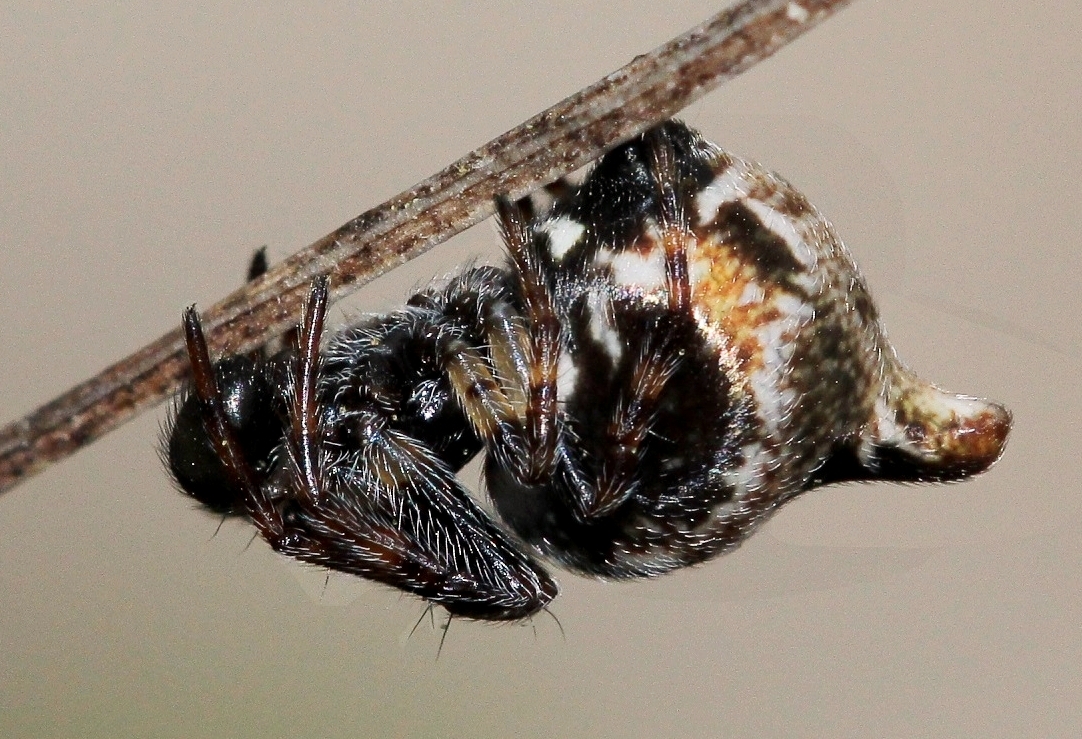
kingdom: Animalia
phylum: Arthropoda
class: Arachnida
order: Araneae
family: Araneidae
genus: Cyclosa
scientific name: Cyclosa sierrae
